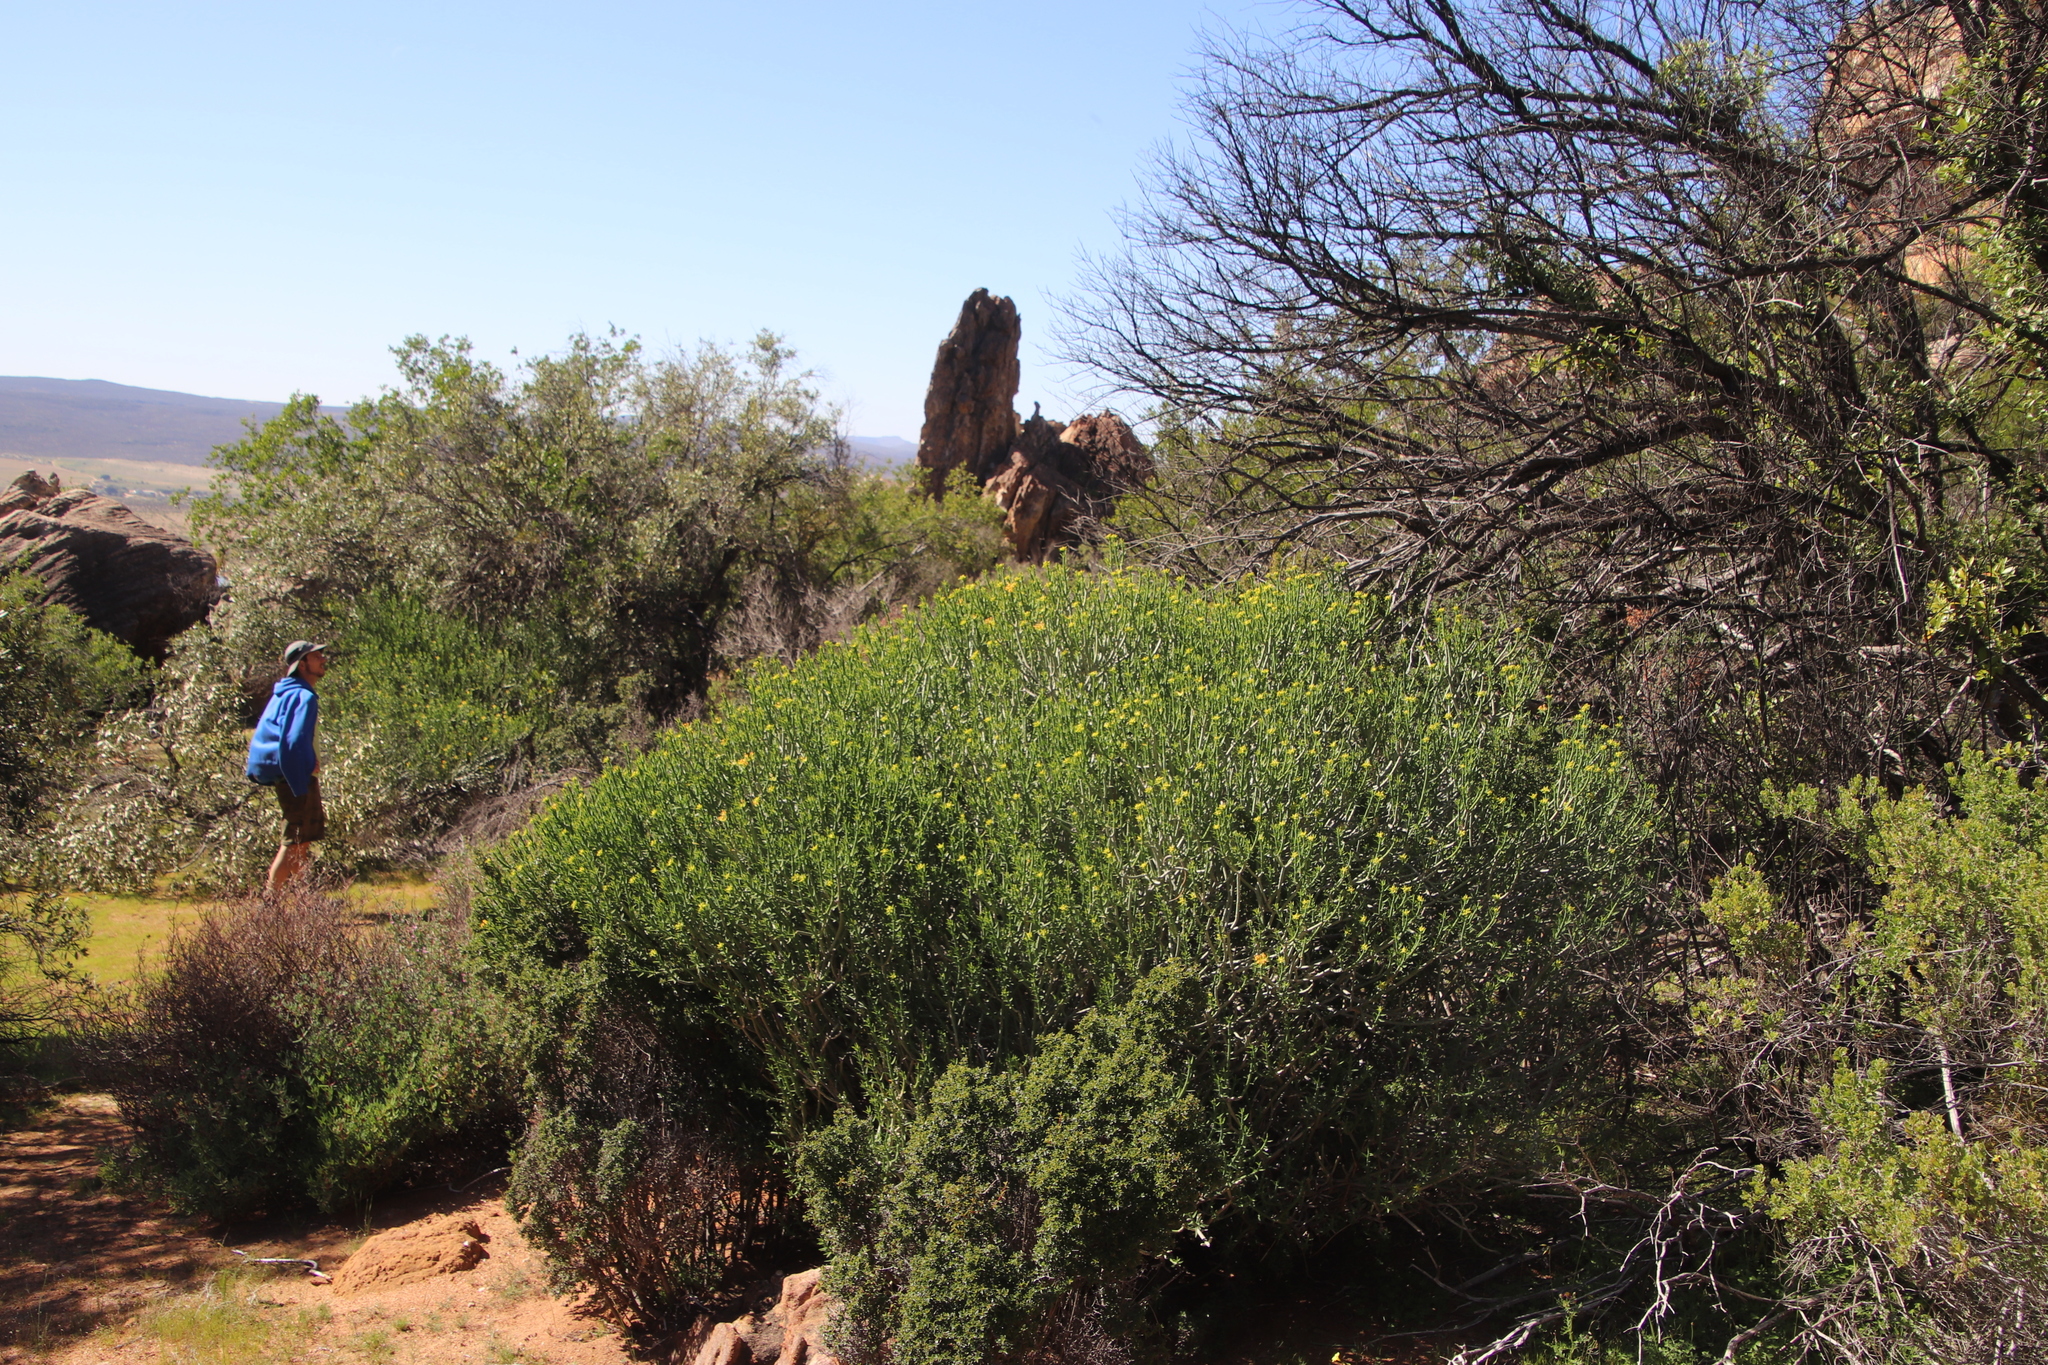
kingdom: Plantae
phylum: Tracheophyta
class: Magnoliopsida
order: Malpighiales
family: Euphorbiaceae
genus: Euphorbia
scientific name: Euphorbia mauritanica
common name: Jackal's-food
